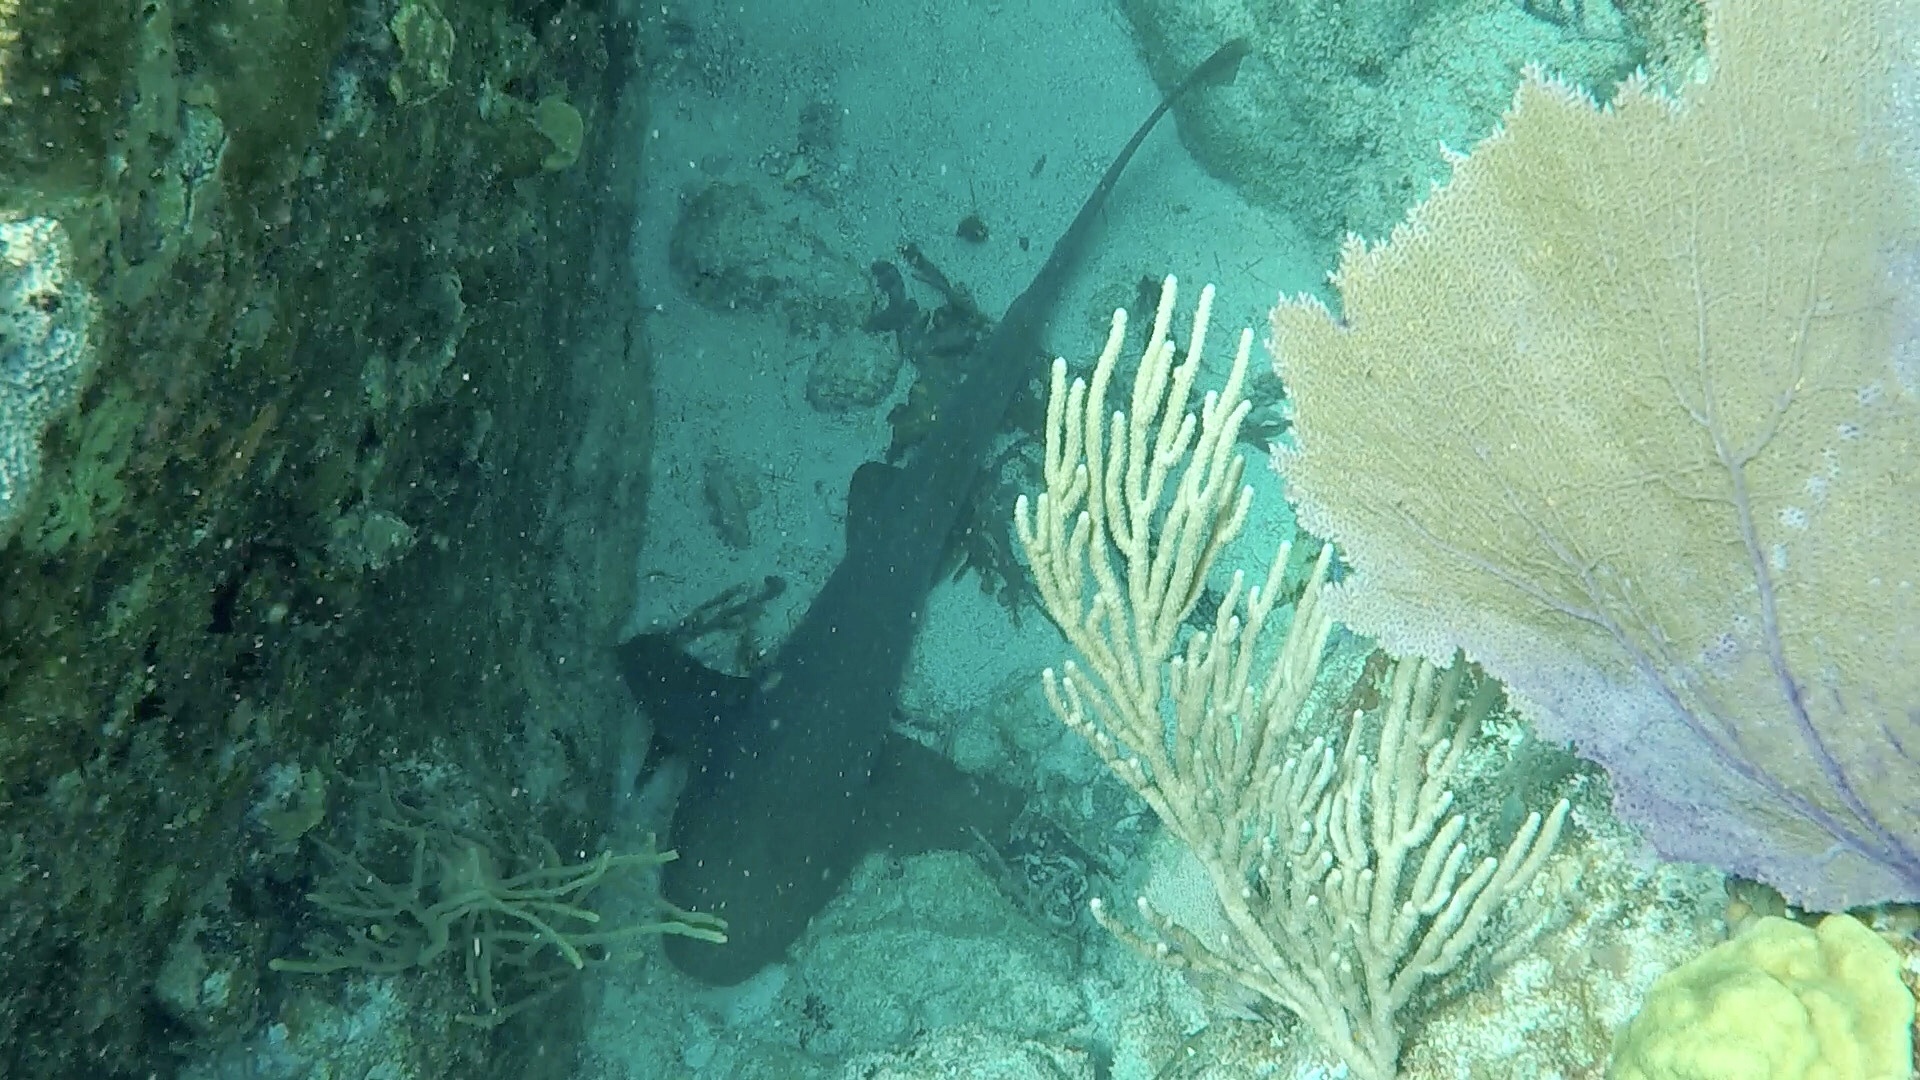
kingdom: Animalia
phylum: Chordata
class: Elasmobranchii
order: Orectolobiformes
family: Ginglymostomatidae
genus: Ginglymostoma
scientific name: Ginglymostoma cirratum
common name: Nurse shark
